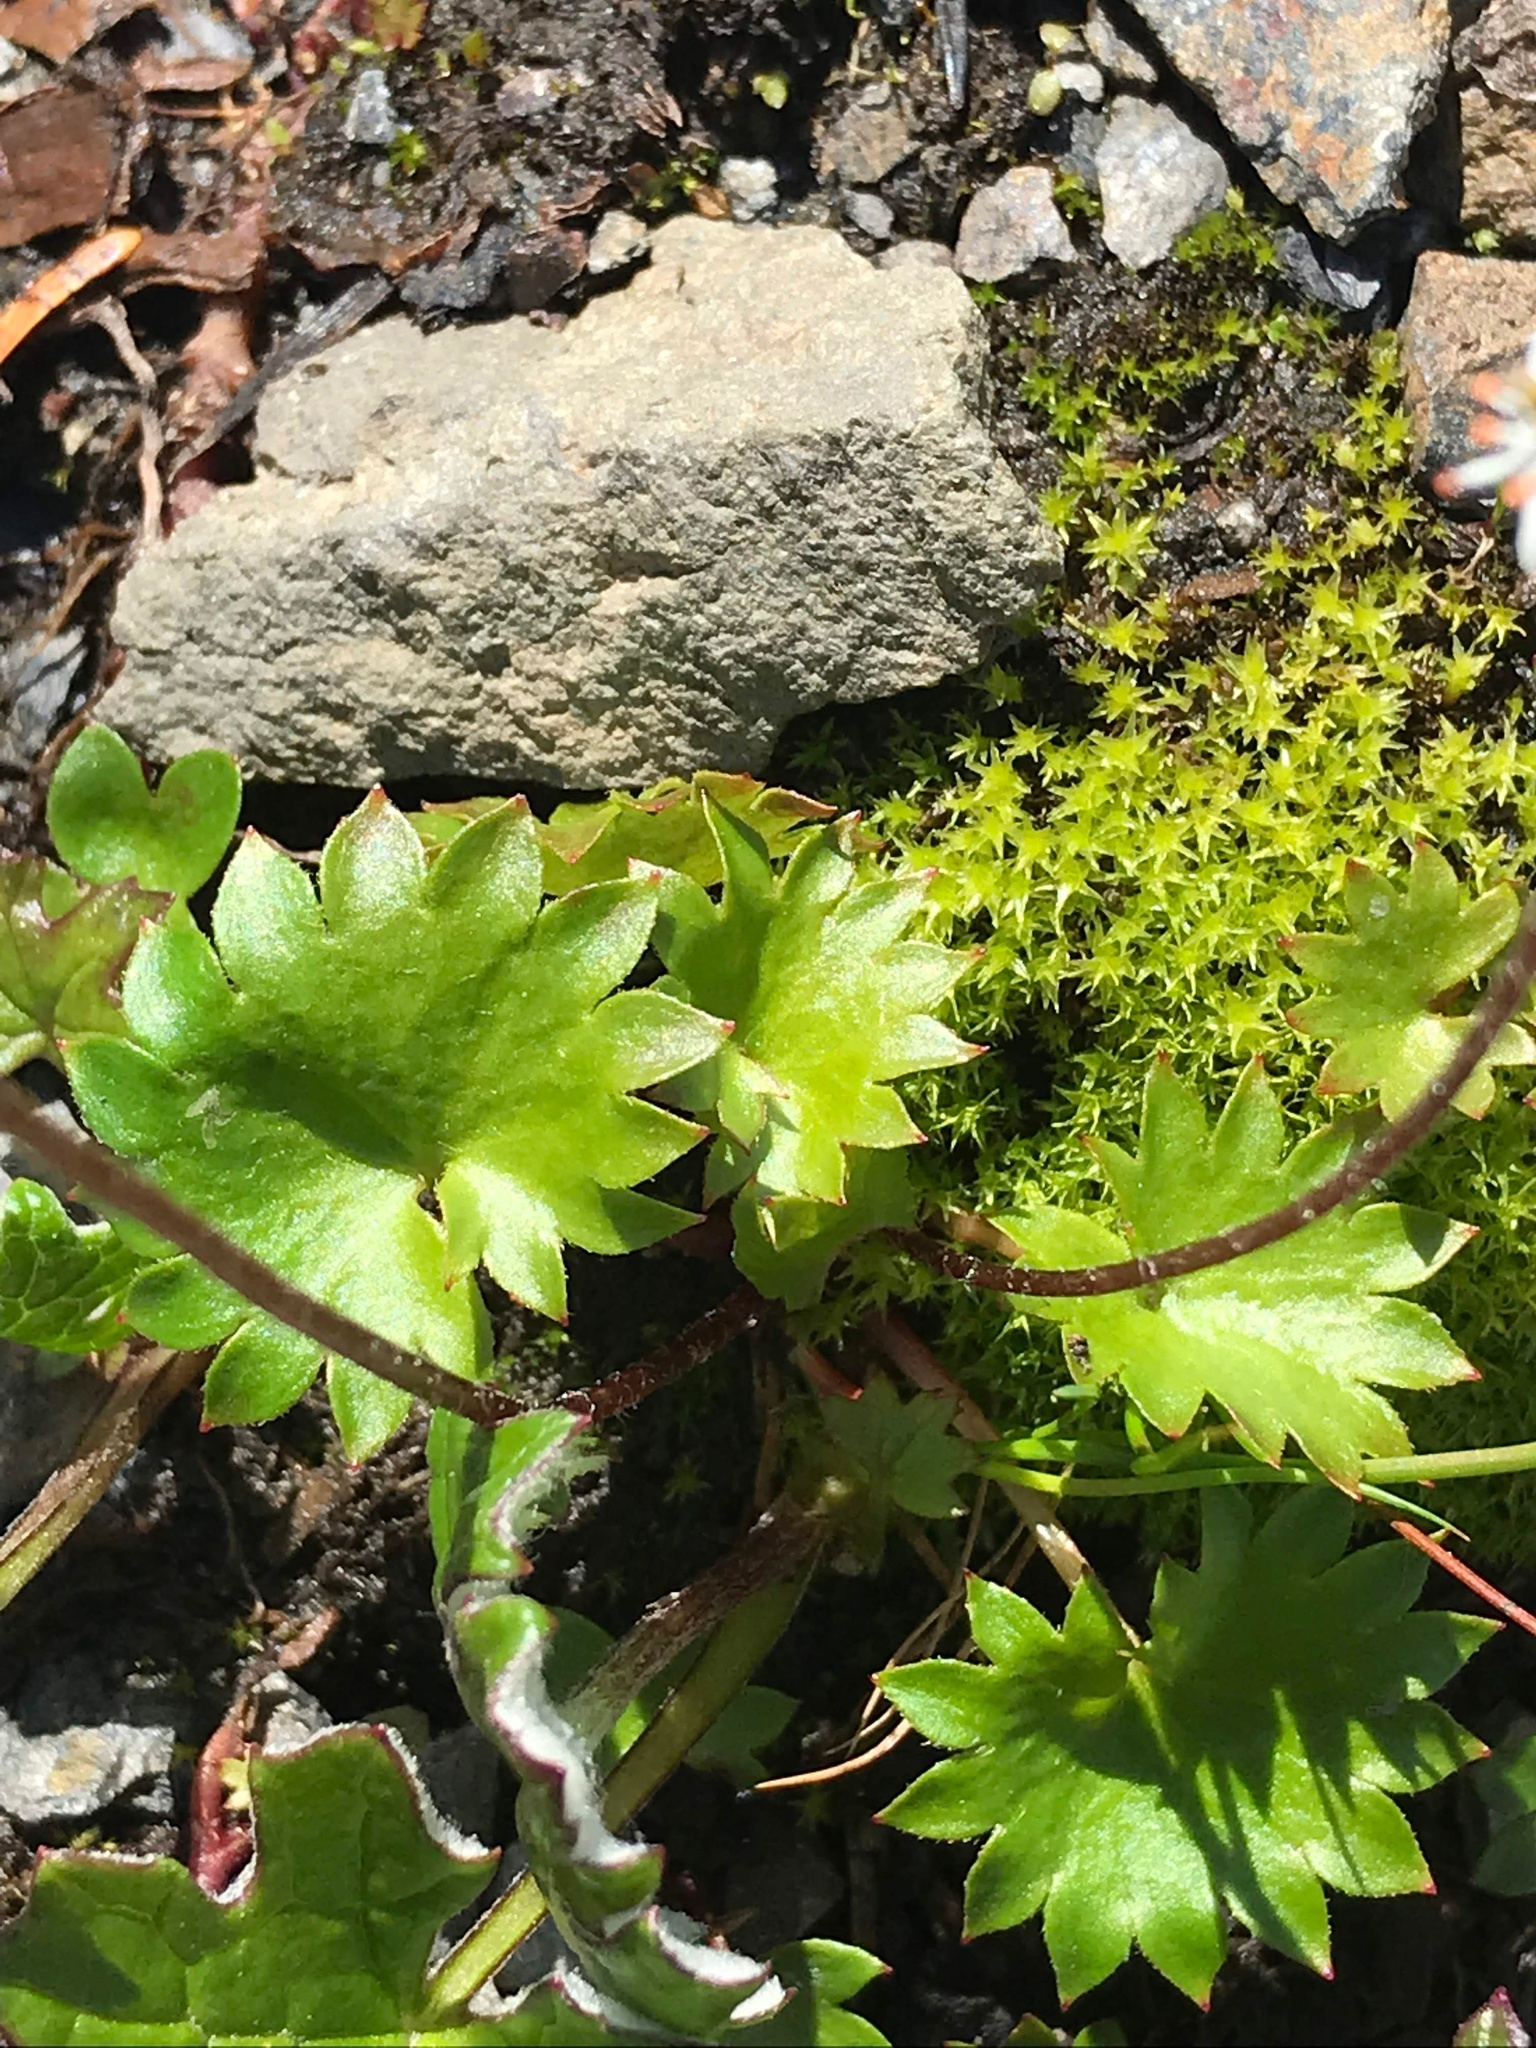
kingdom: Plantae
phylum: Tracheophyta
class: Magnoliopsida
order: Saxifragales
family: Saxifragaceae
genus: Micranthes
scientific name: Micranthes nelsoniana
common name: Nelson's saxifrage
